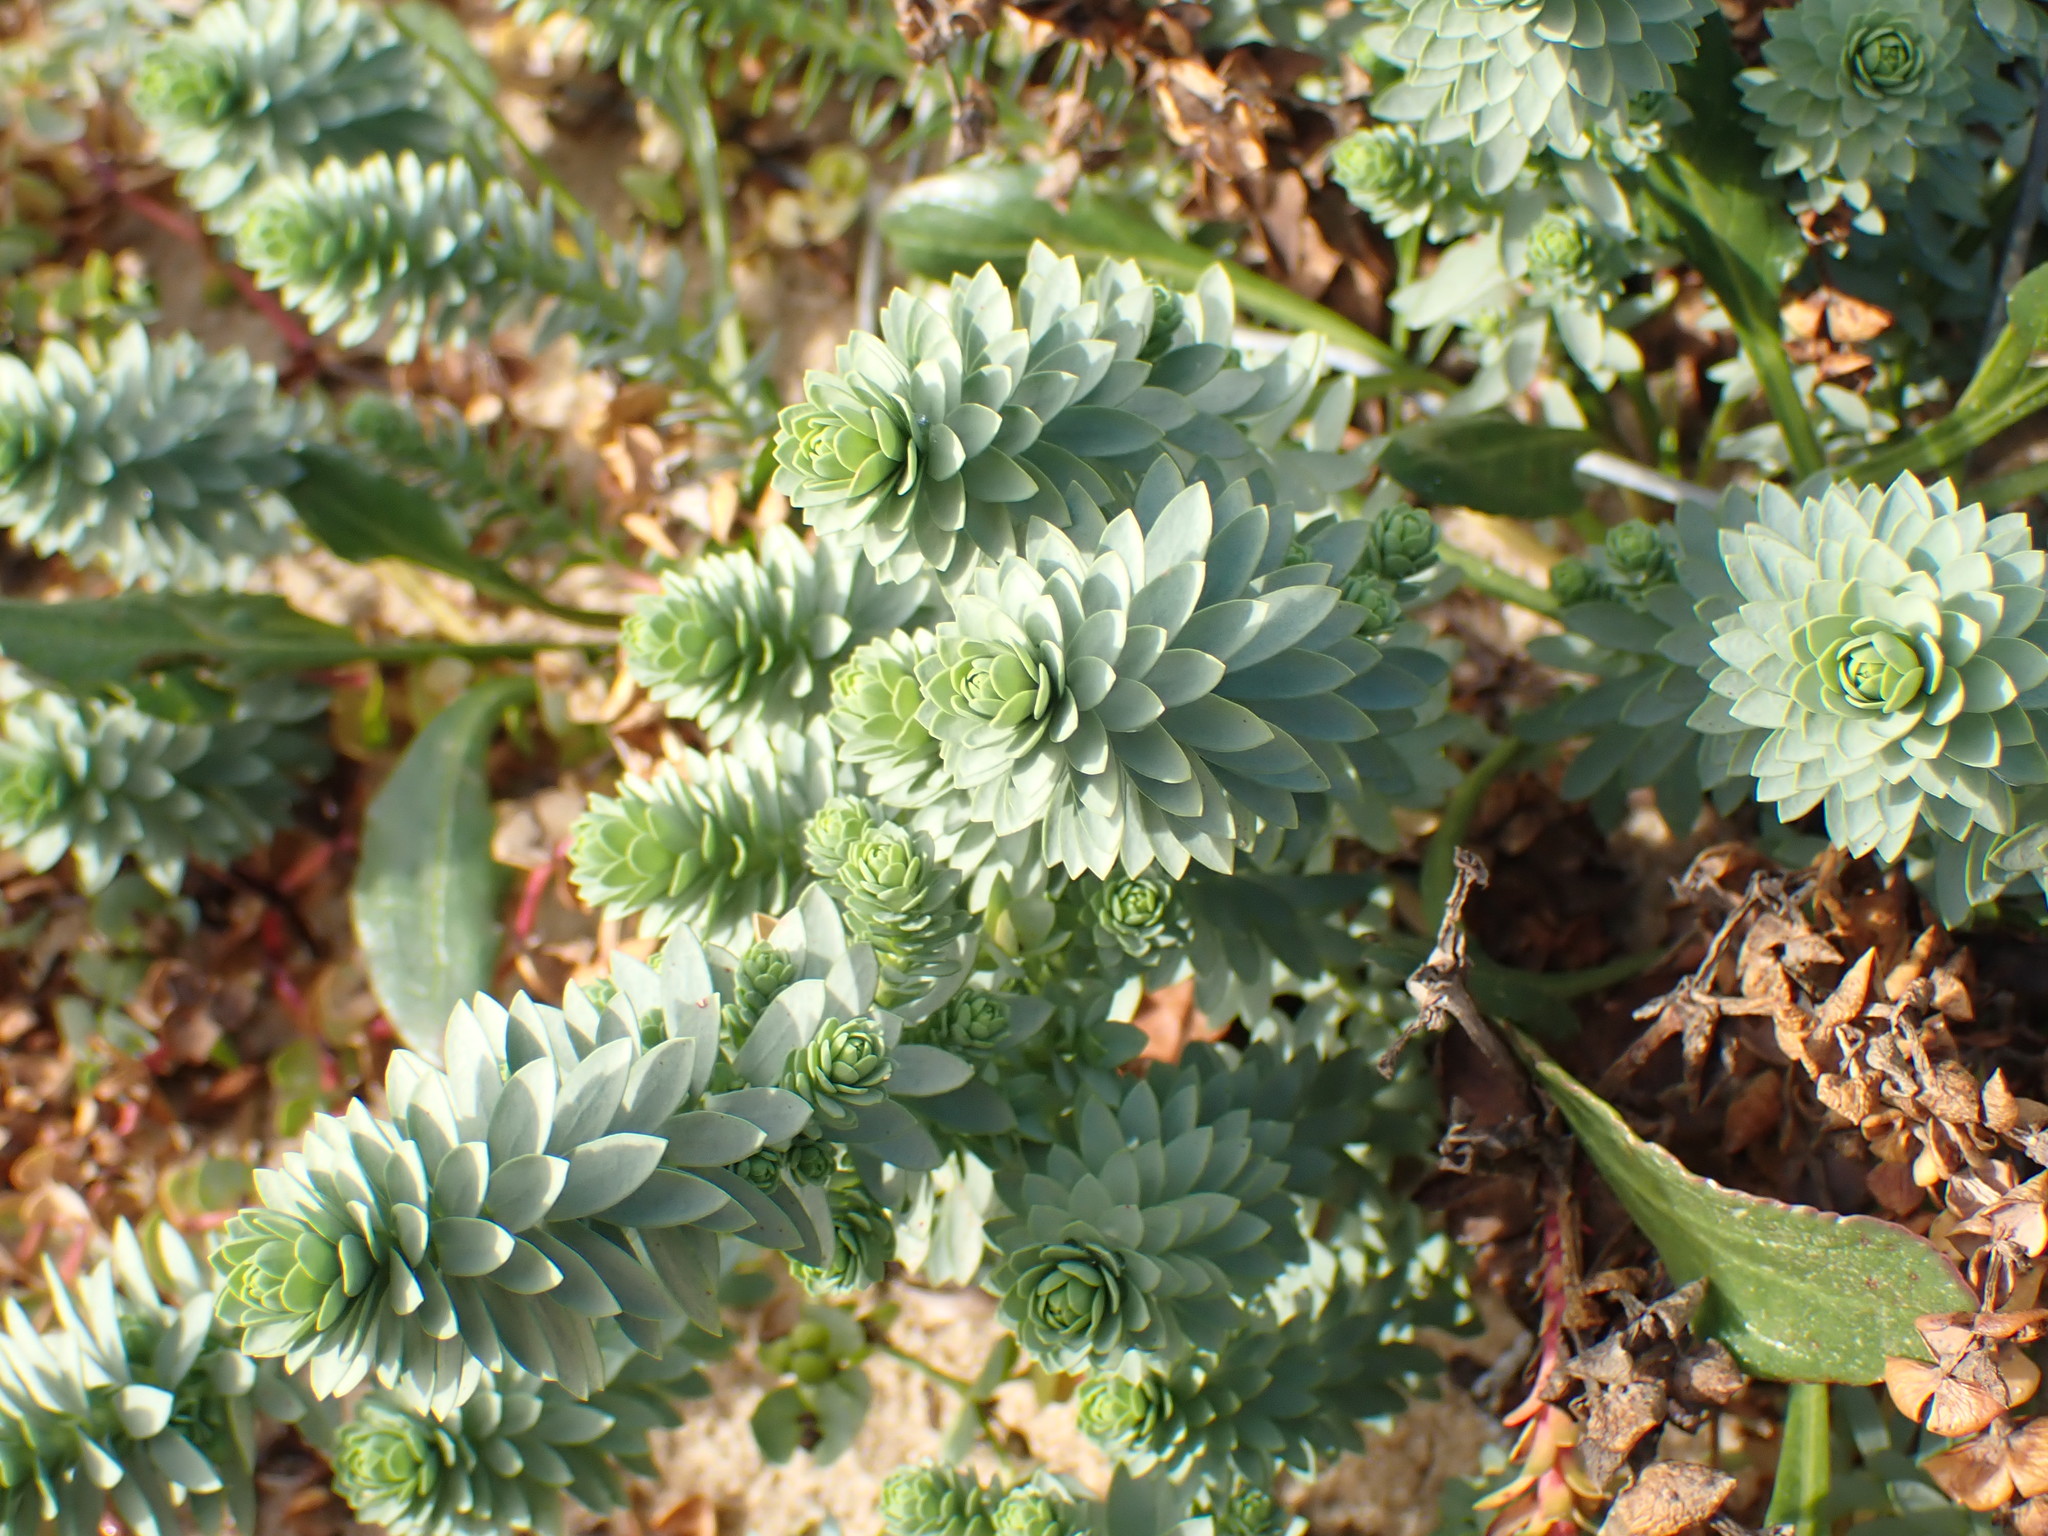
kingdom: Plantae
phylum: Tracheophyta
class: Magnoliopsida
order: Malpighiales
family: Euphorbiaceae
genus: Euphorbia
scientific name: Euphorbia paralias
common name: Sea spurge
